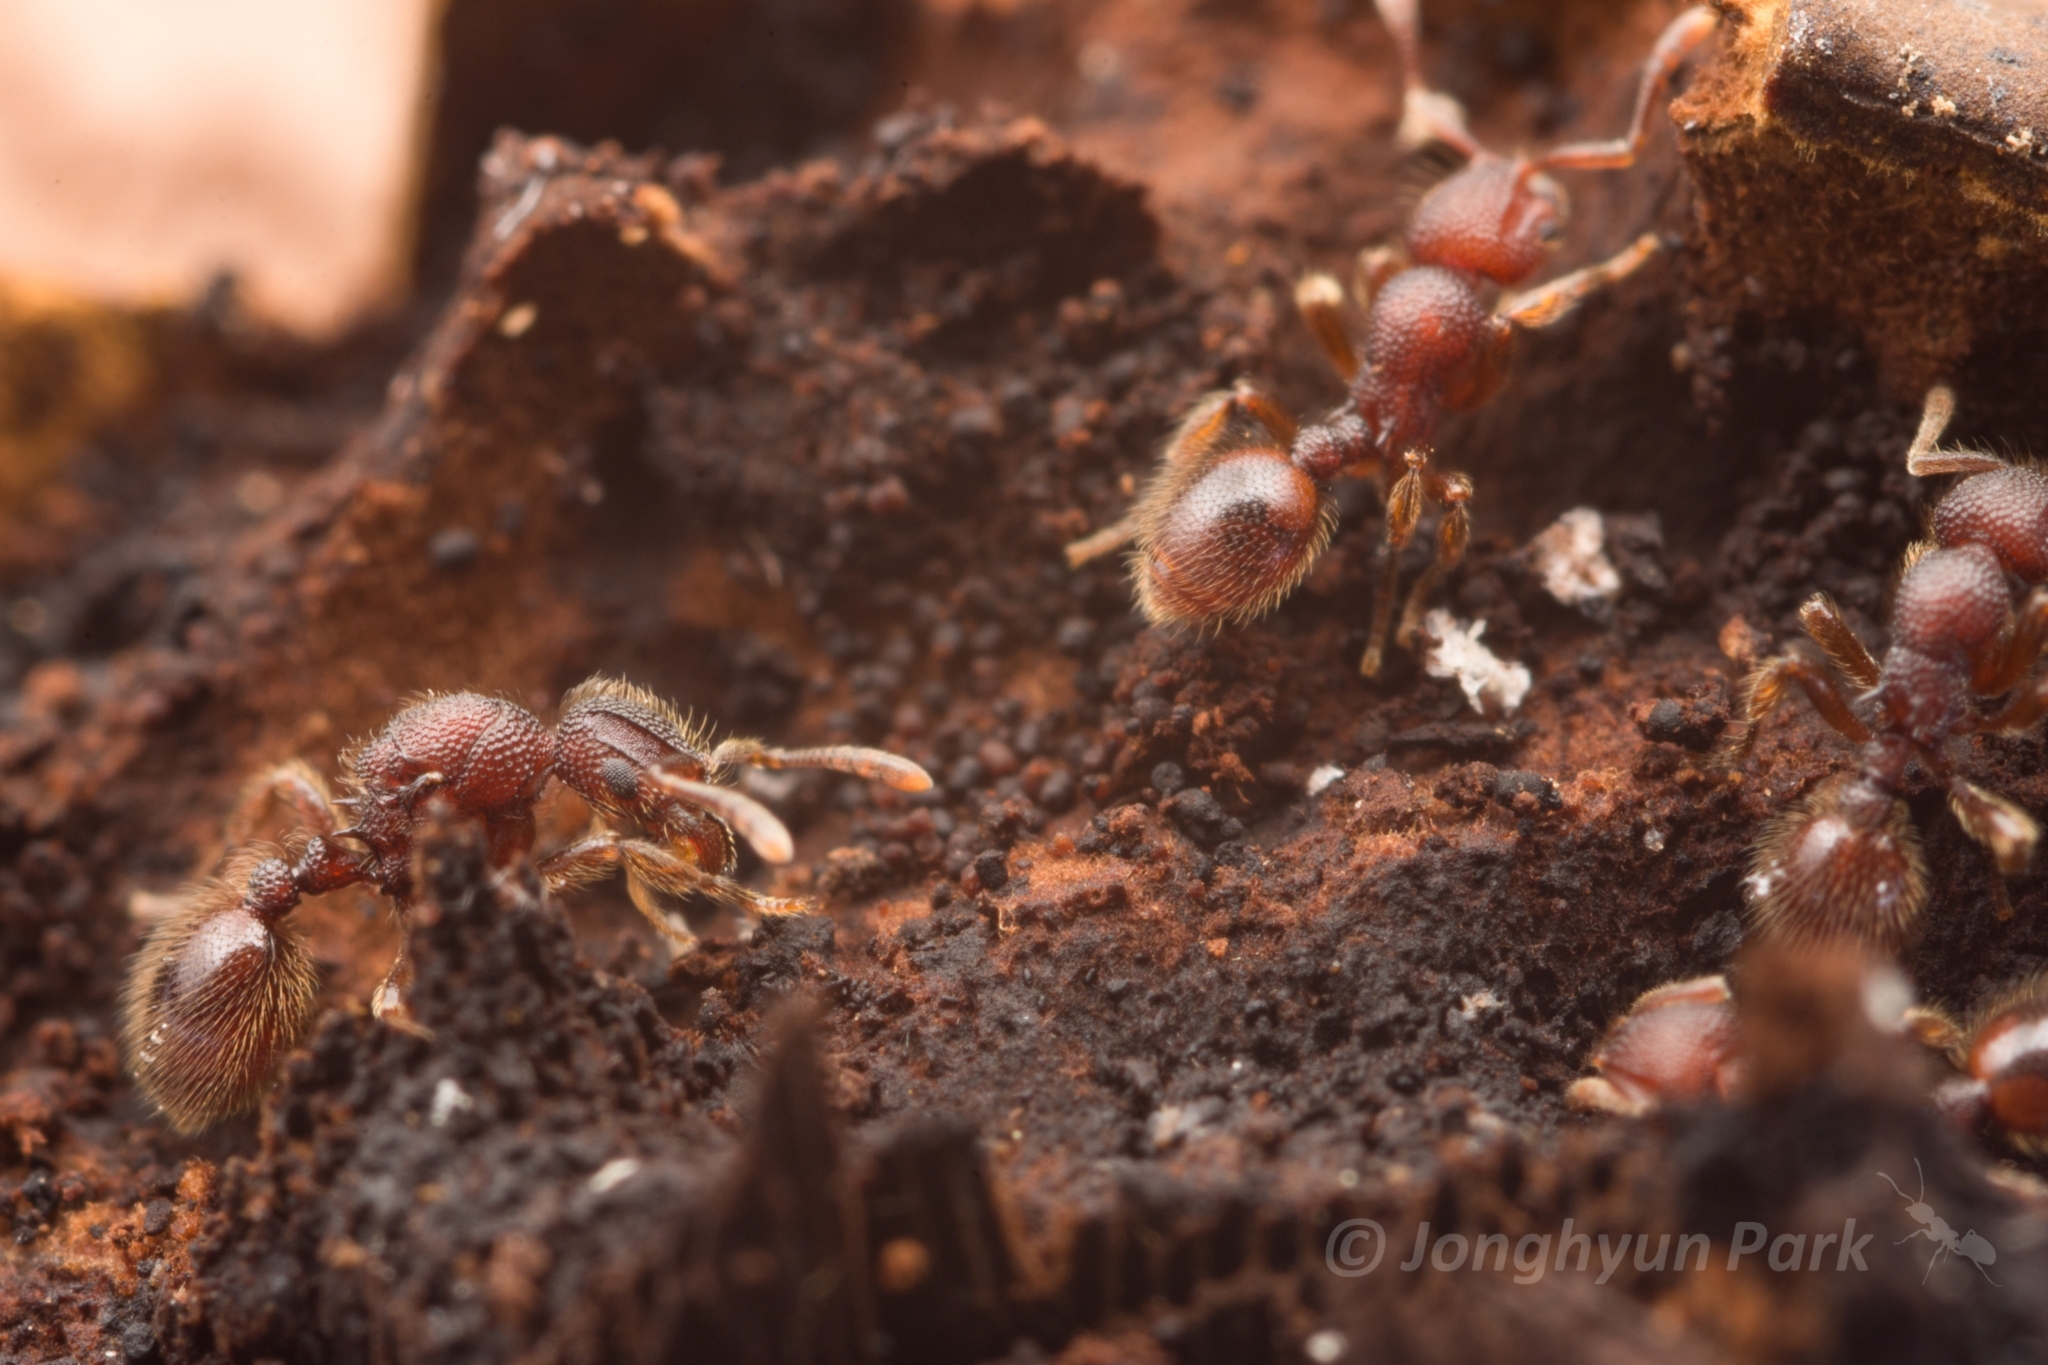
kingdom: Animalia
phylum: Arthropoda
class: Insecta
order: Hymenoptera
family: Formicidae
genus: Lordomyrma
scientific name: Lordomyrma
